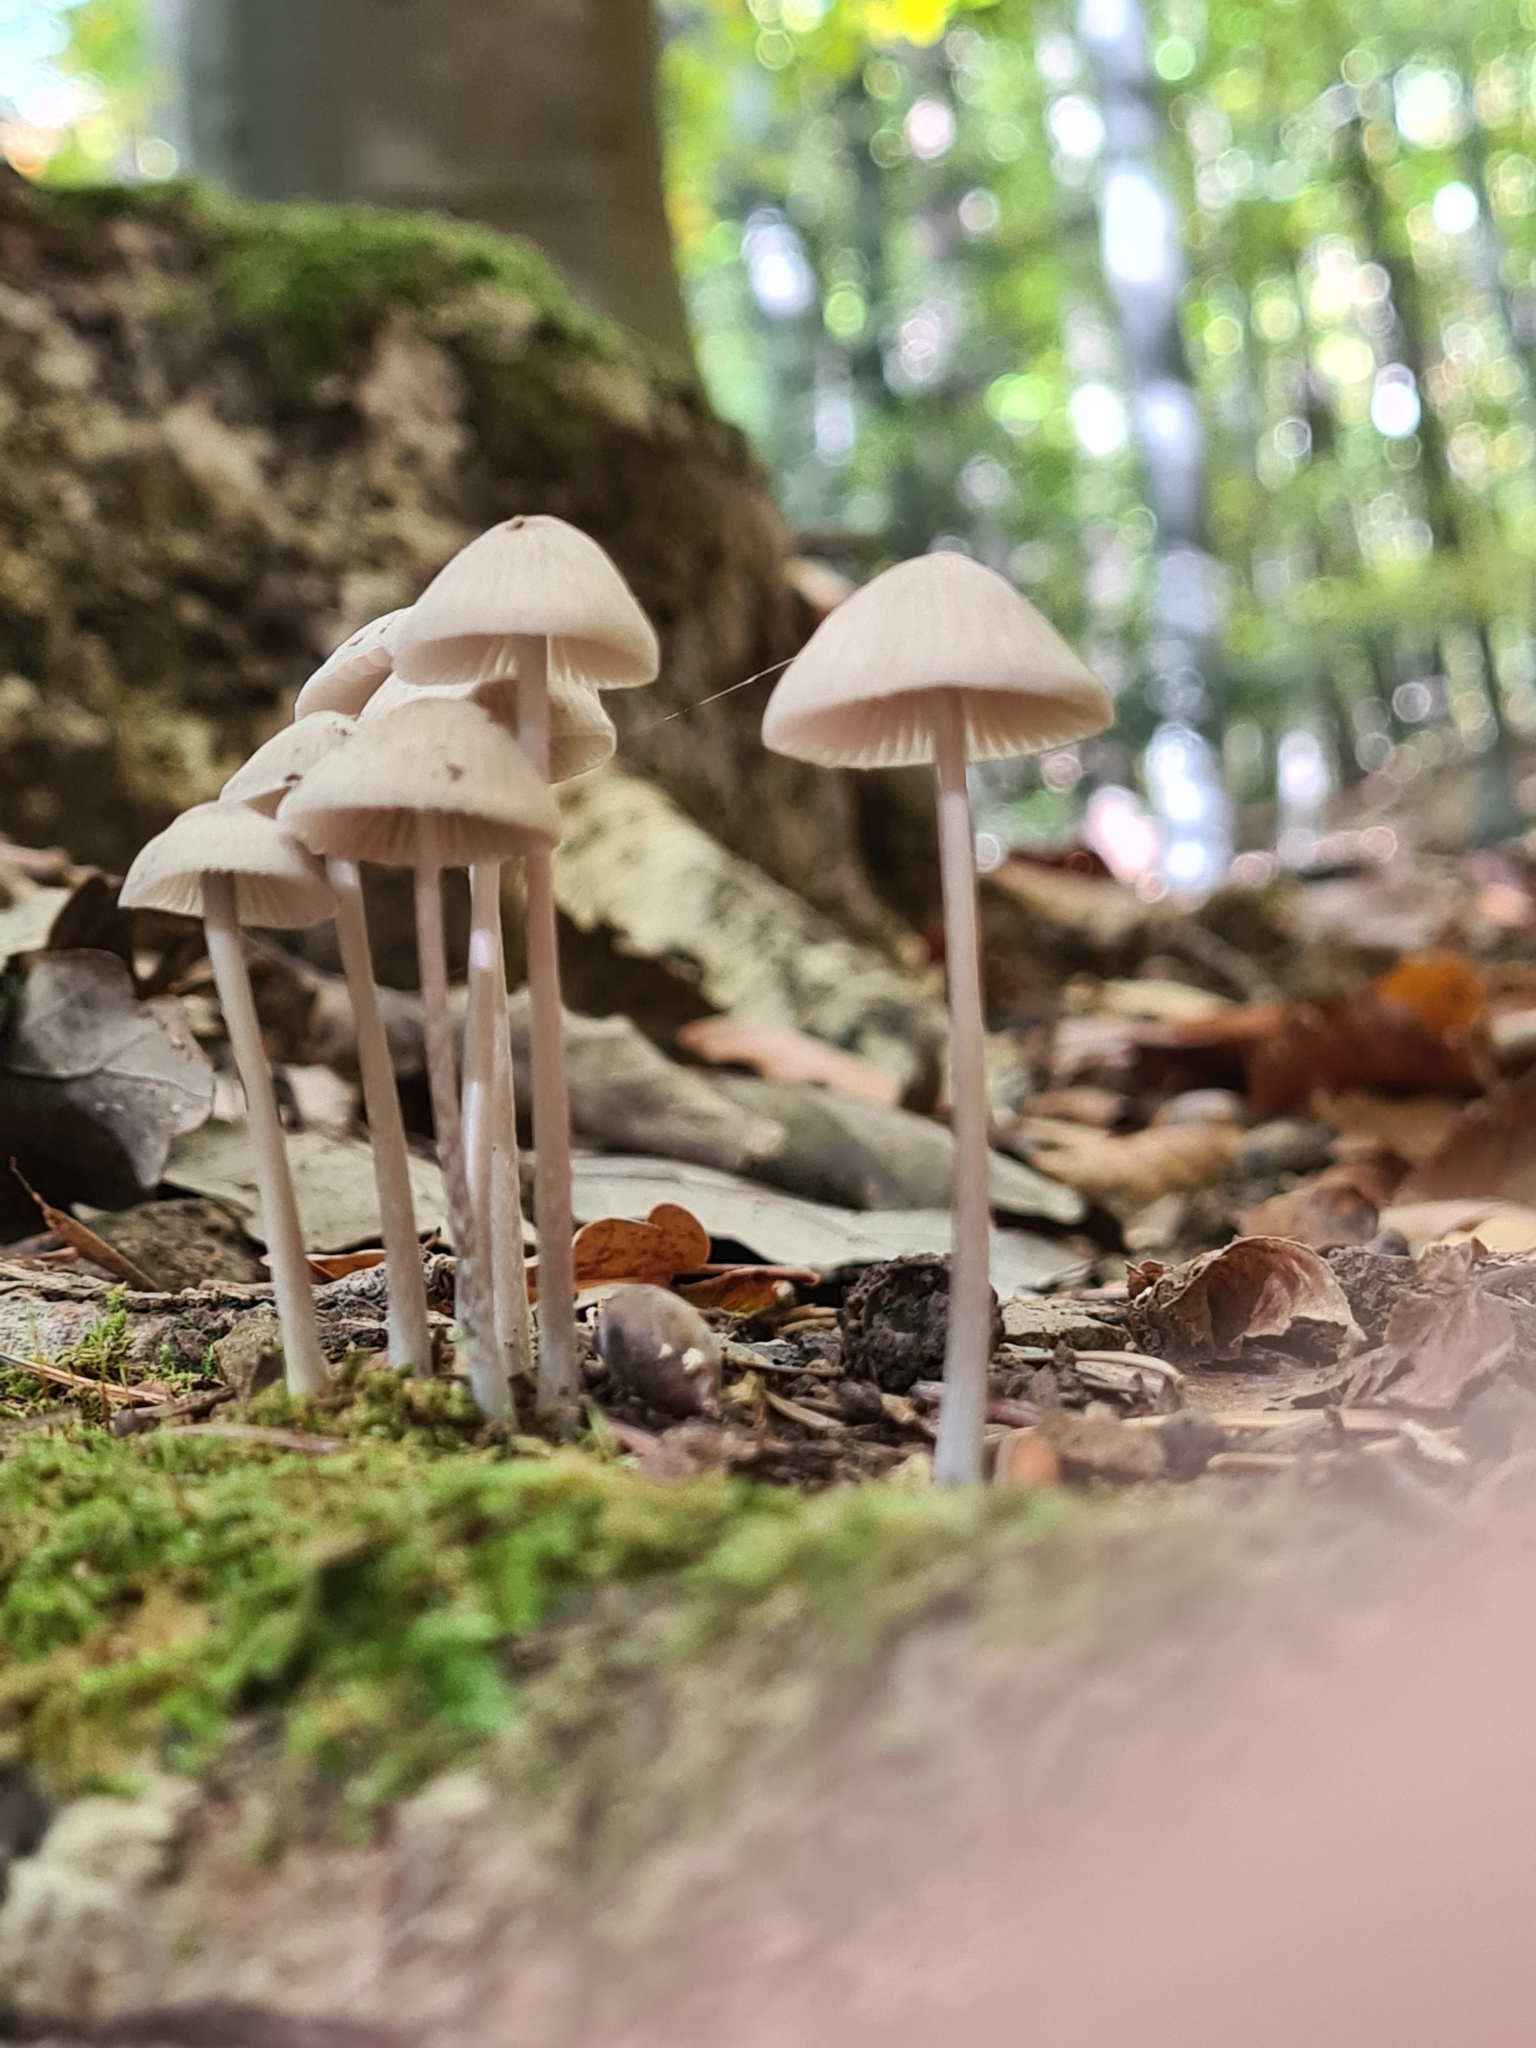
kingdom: Fungi
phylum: Basidiomycota
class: Agaricomycetes
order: Agaricales
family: Mycenaceae
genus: Mycena
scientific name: Mycena polygramma
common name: Grooved bonnet
